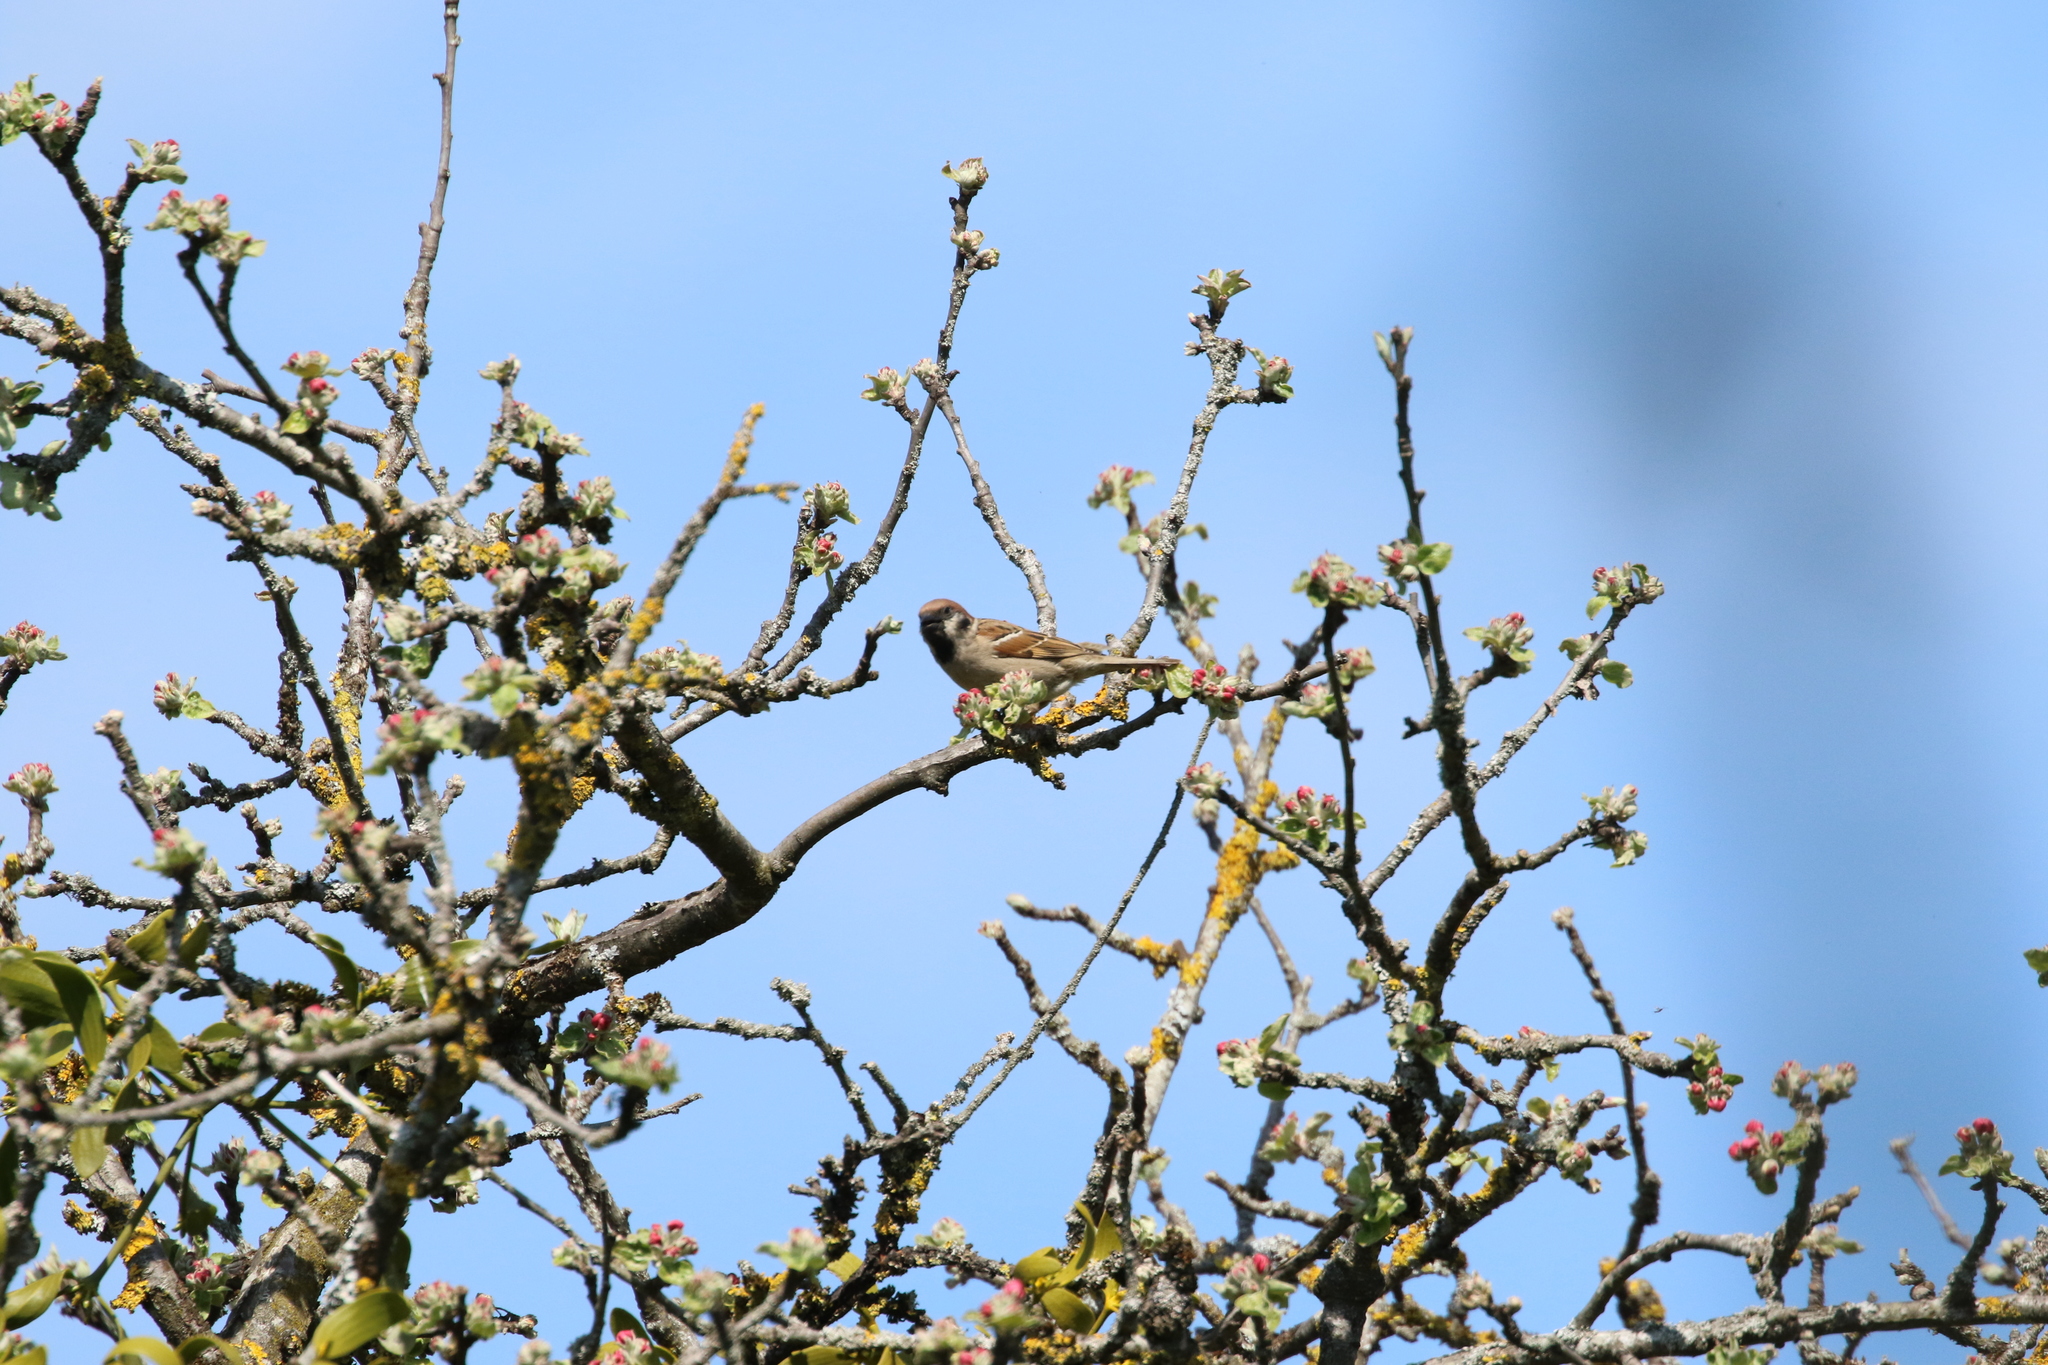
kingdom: Animalia
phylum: Chordata
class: Aves
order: Passeriformes
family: Passeridae
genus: Passer
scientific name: Passer montanus
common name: Eurasian tree sparrow
